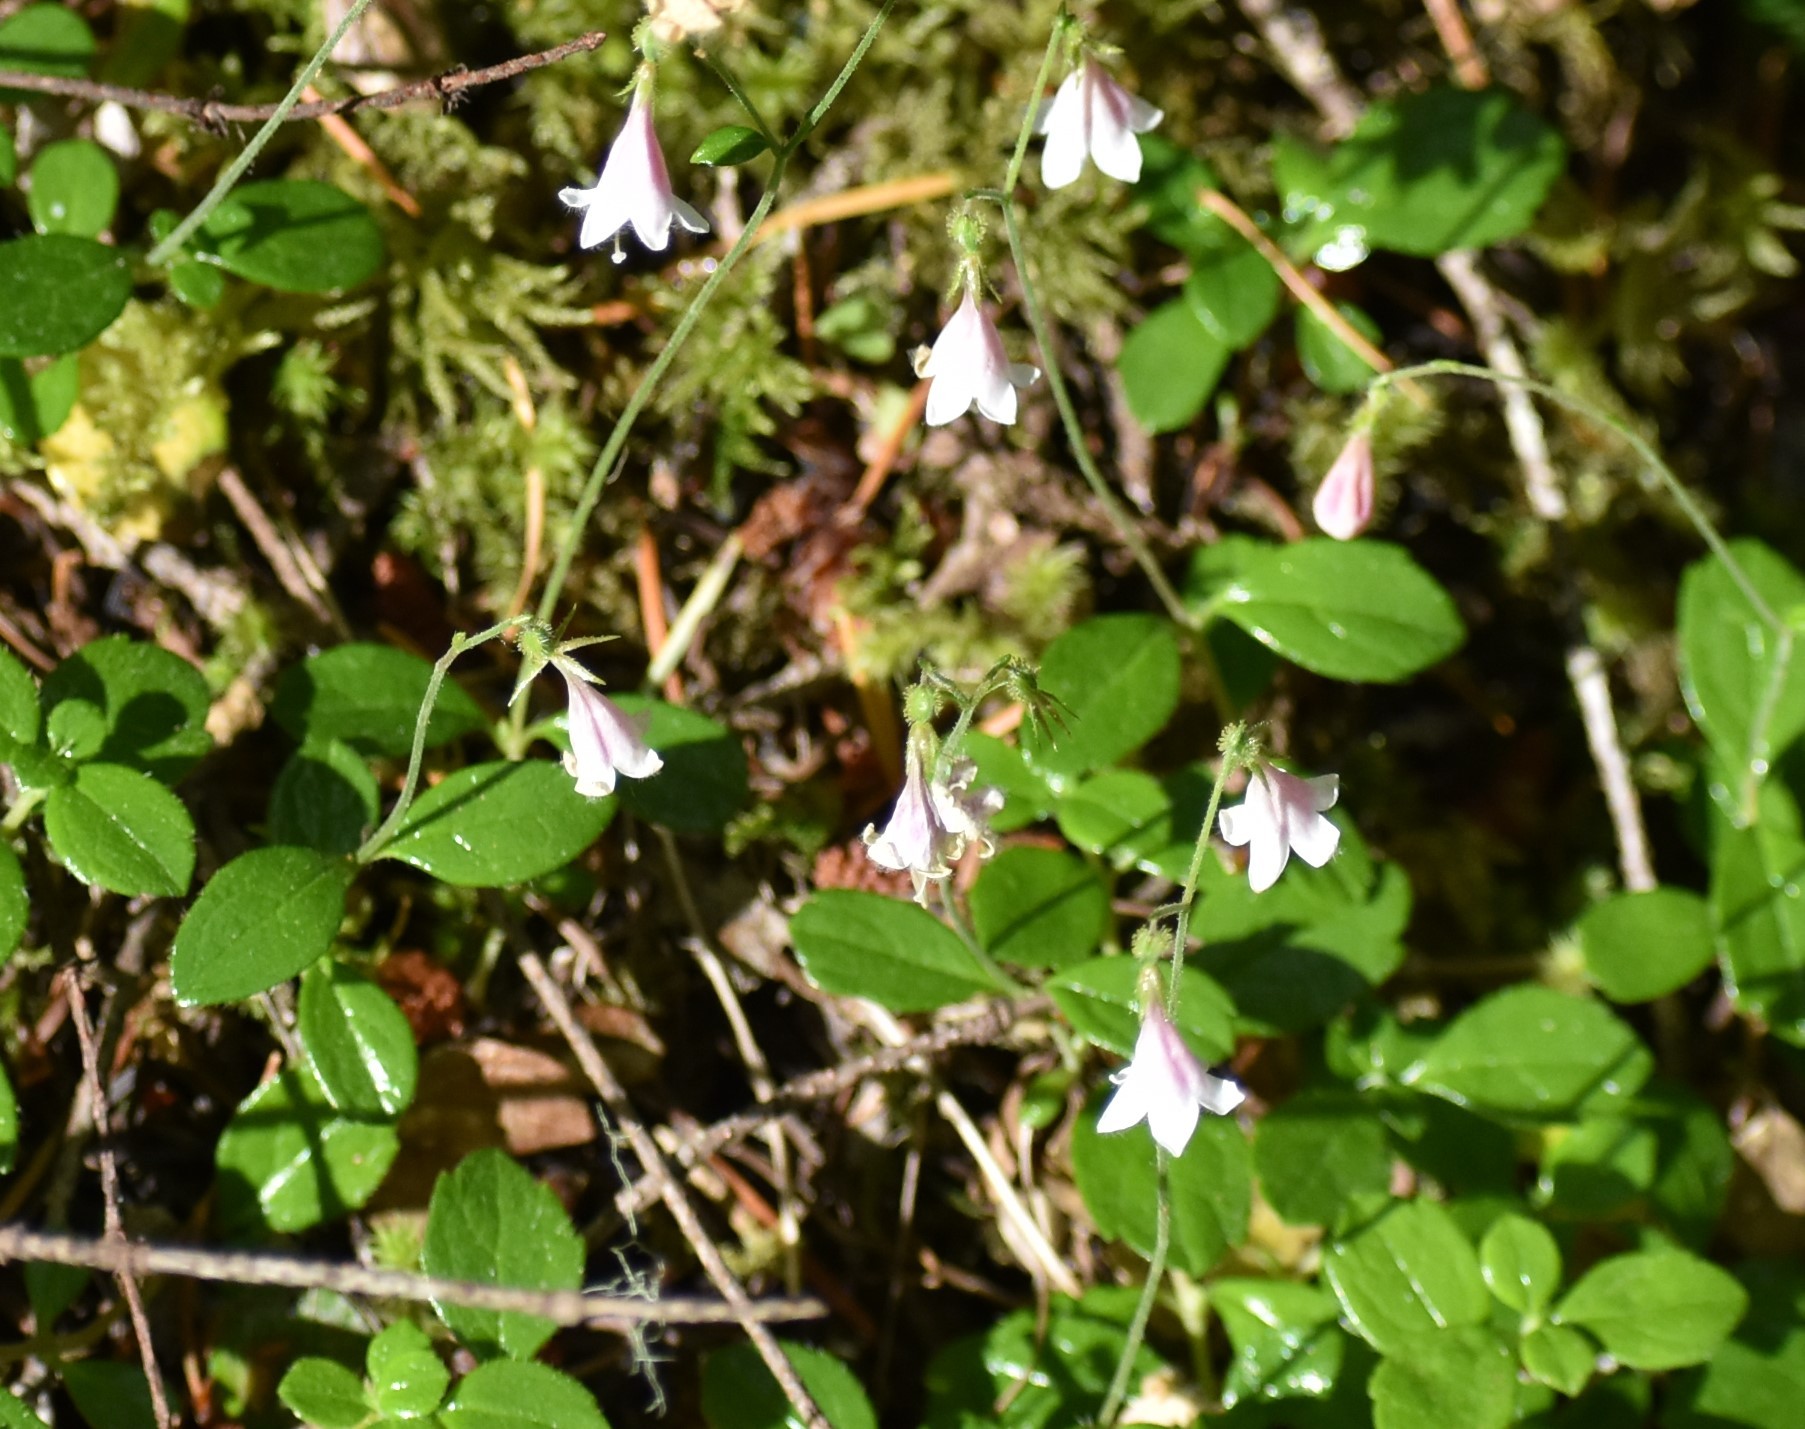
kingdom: Plantae
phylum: Tracheophyta
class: Magnoliopsida
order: Dipsacales
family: Caprifoliaceae
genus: Linnaea
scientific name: Linnaea borealis
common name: Twinflower
